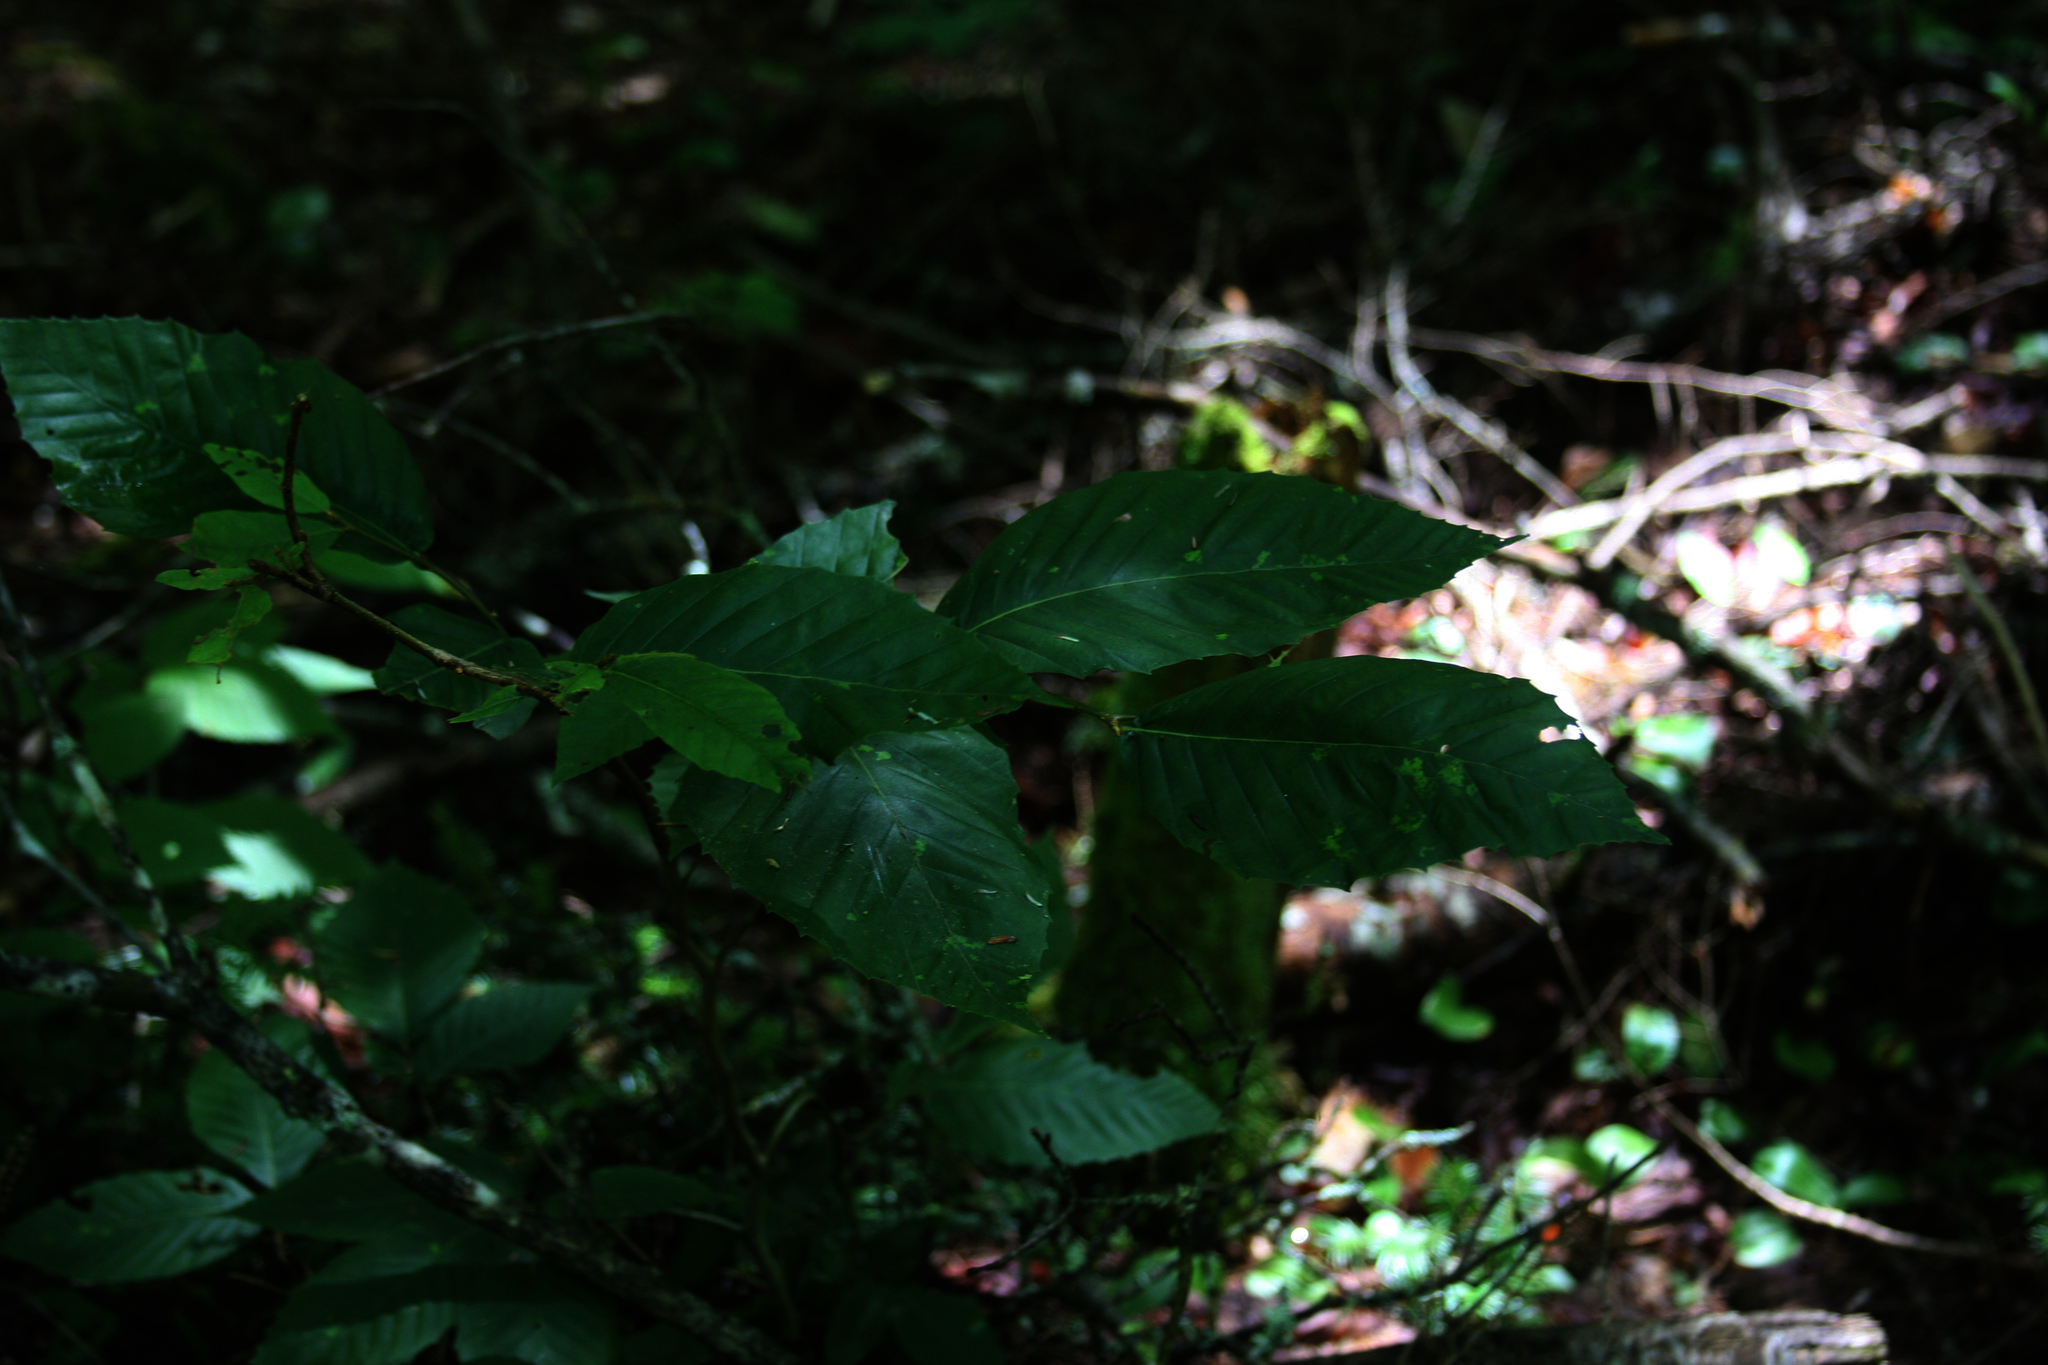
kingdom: Plantae
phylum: Tracheophyta
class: Magnoliopsida
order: Fagales
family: Fagaceae
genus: Fagus
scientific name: Fagus grandifolia
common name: American beech
